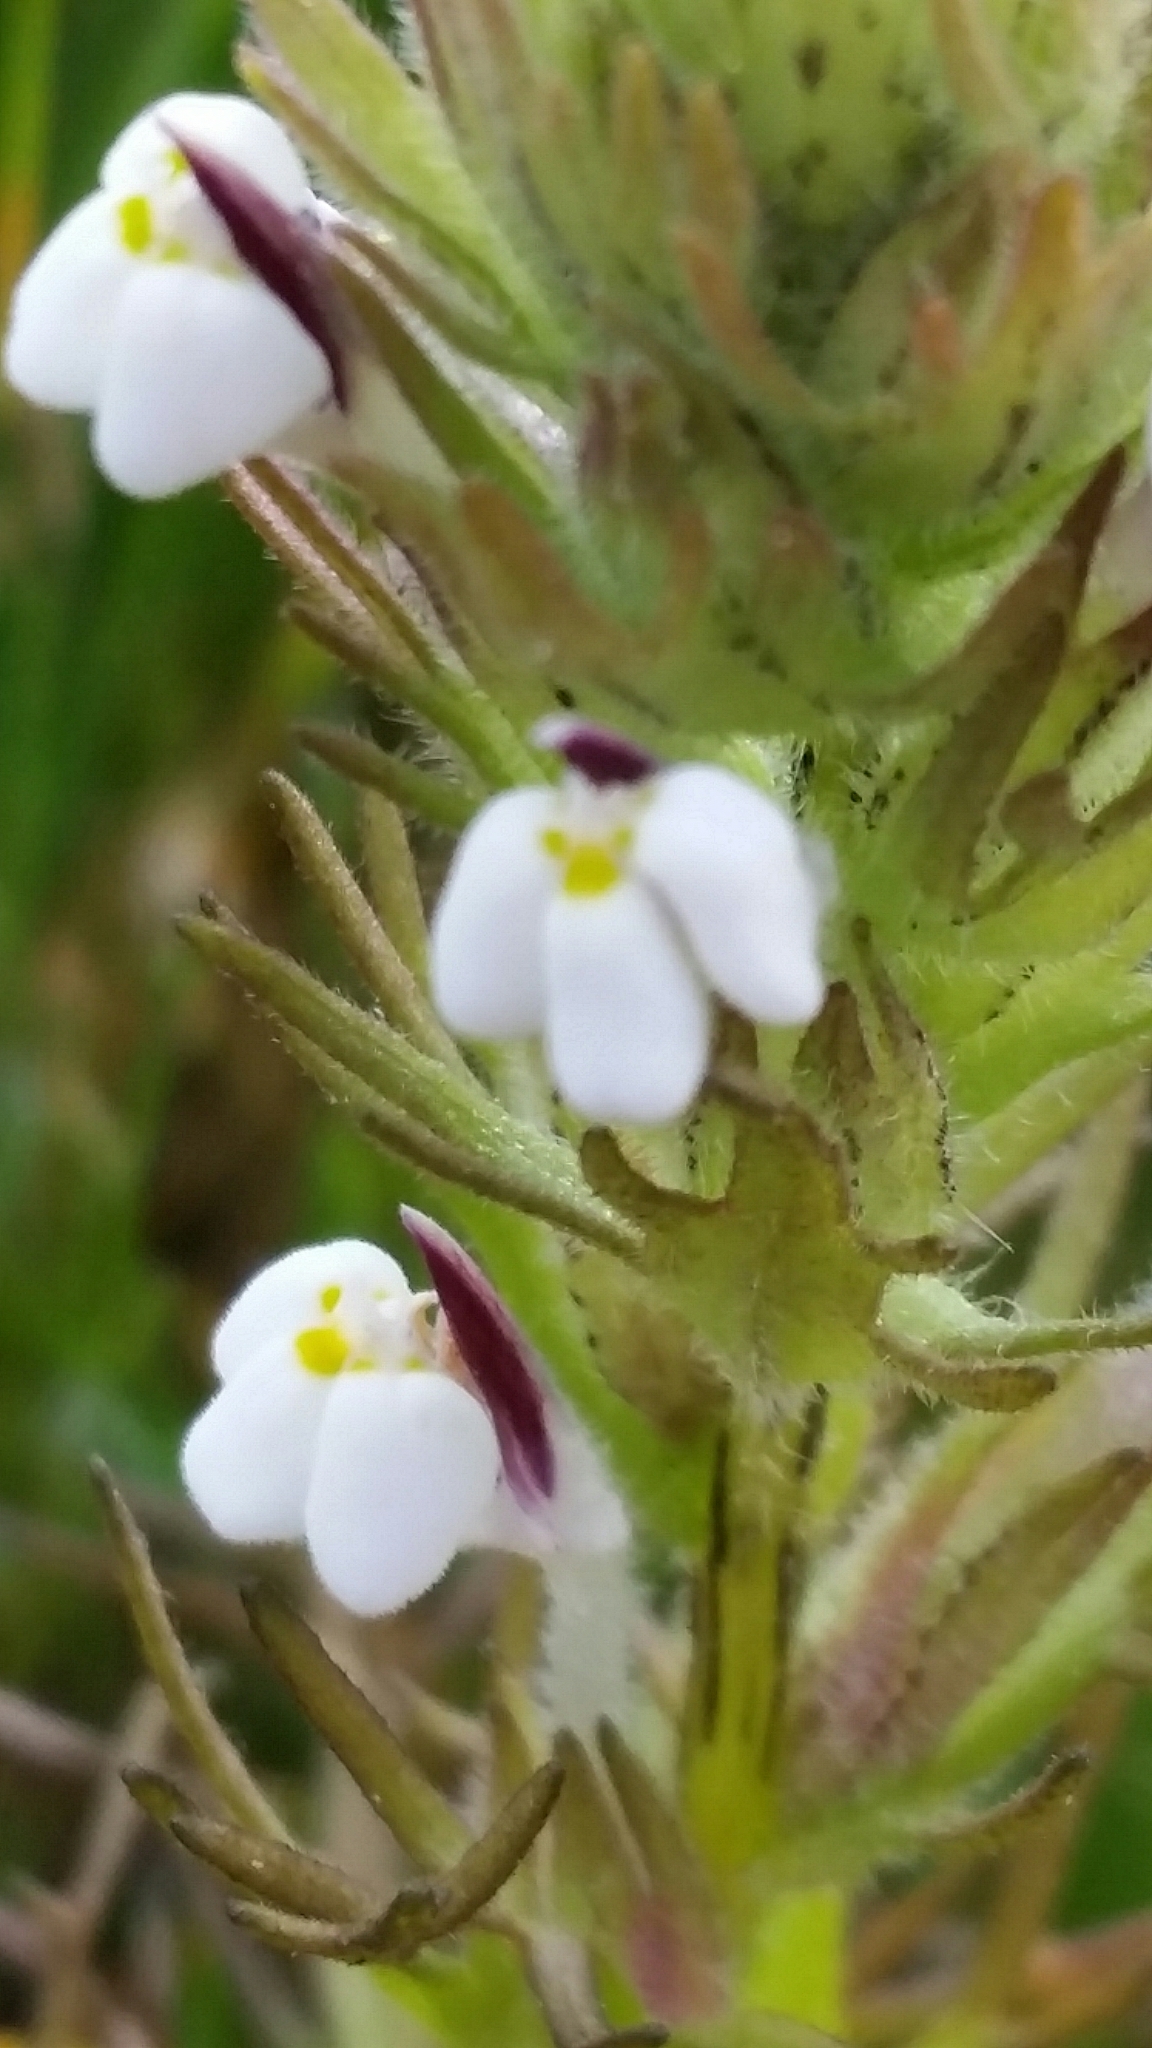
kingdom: Plantae
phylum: Tracheophyta
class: Magnoliopsida
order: Lamiales
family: Orobanchaceae
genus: Triphysaria
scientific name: Triphysaria versicolor
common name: Bearded false owl-clover
